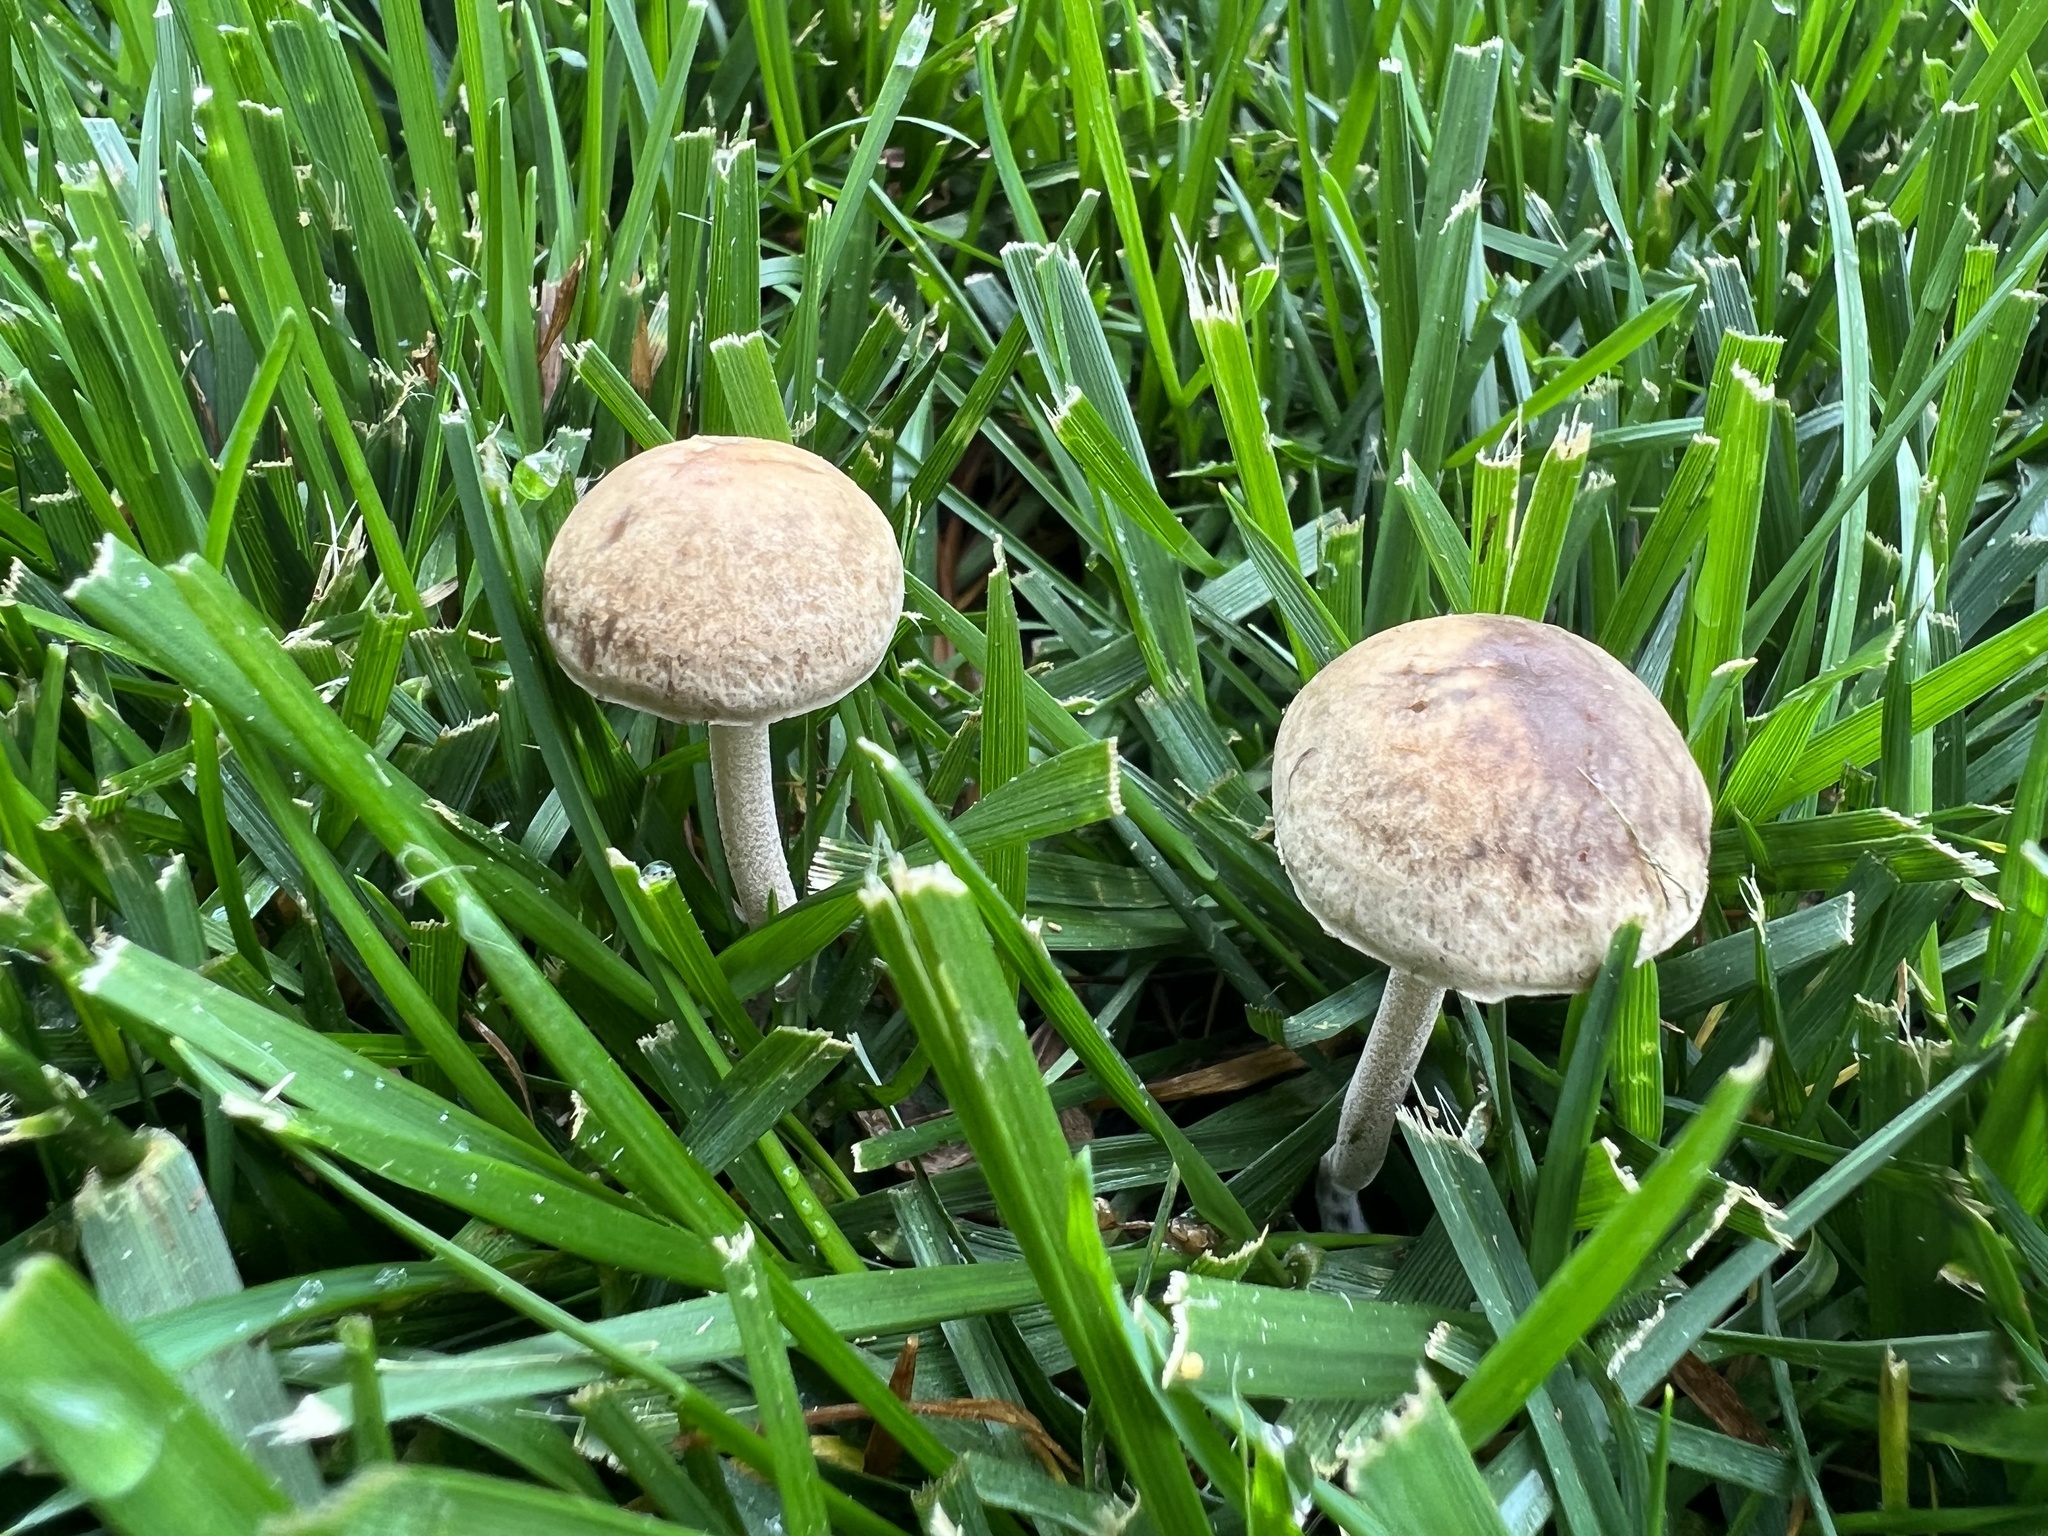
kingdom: Fungi
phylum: Basidiomycota
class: Agaricomycetes
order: Agaricales
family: Bolbitiaceae
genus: Panaeolina
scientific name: Panaeolina foenisecii
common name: Brown hay cap
